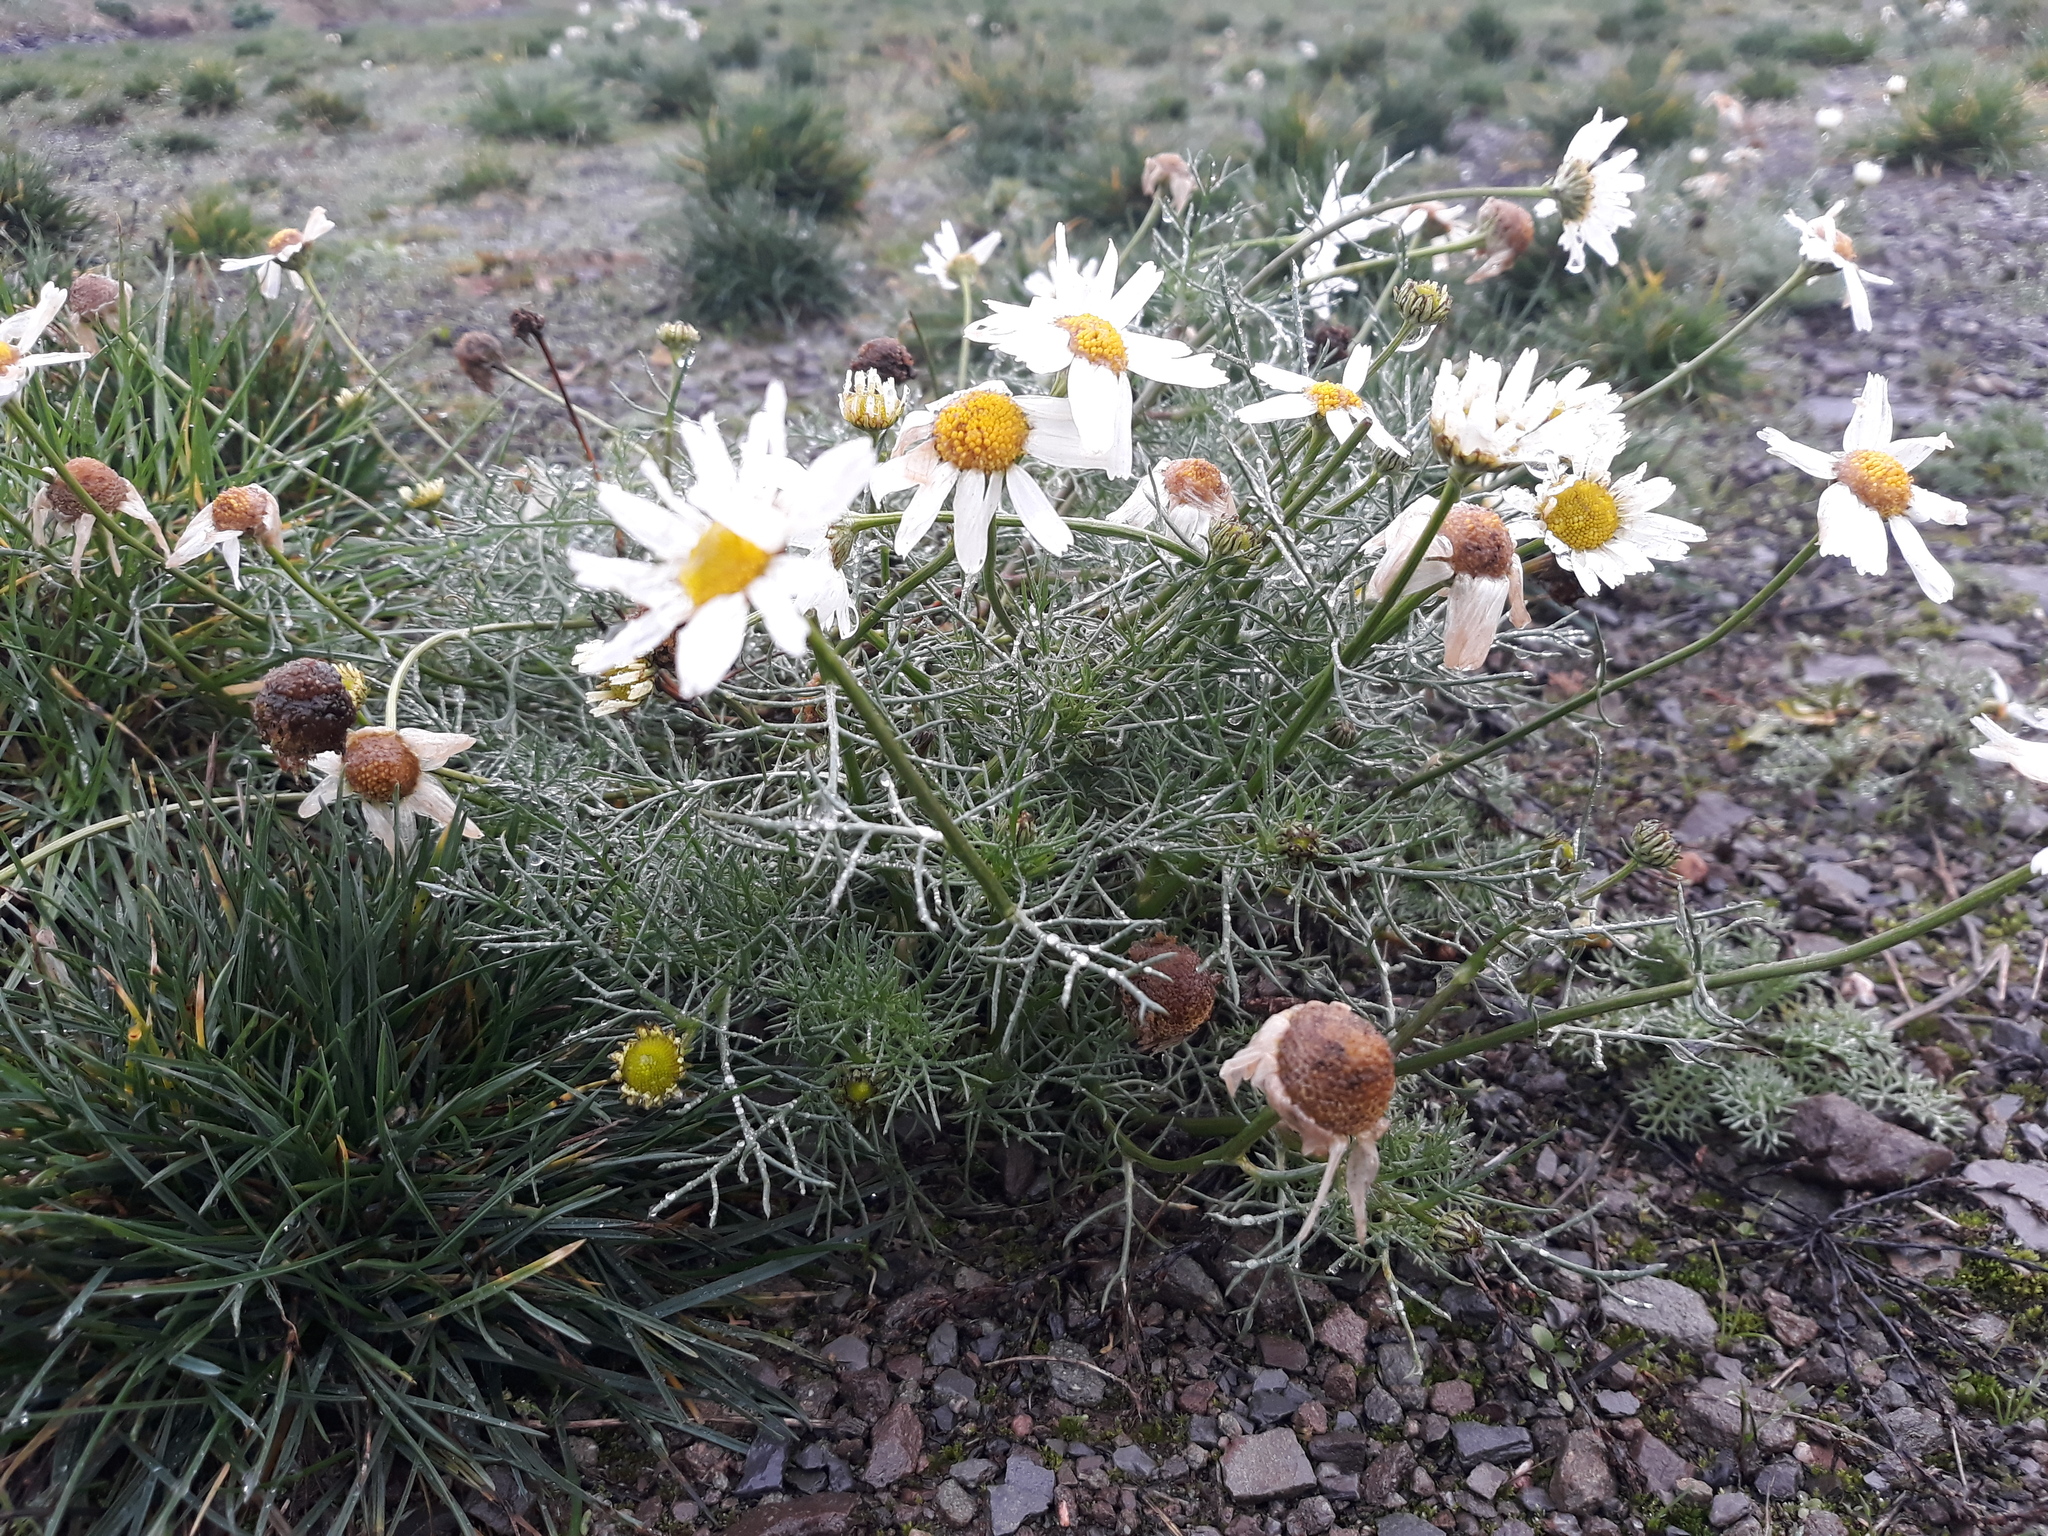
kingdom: Plantae
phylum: Tracheophyta
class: Magnoliopsida
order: Asterales
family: Asteraceae
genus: Tripleurospermum
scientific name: Tripleurospermum inodorum
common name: Scentless mayweed
